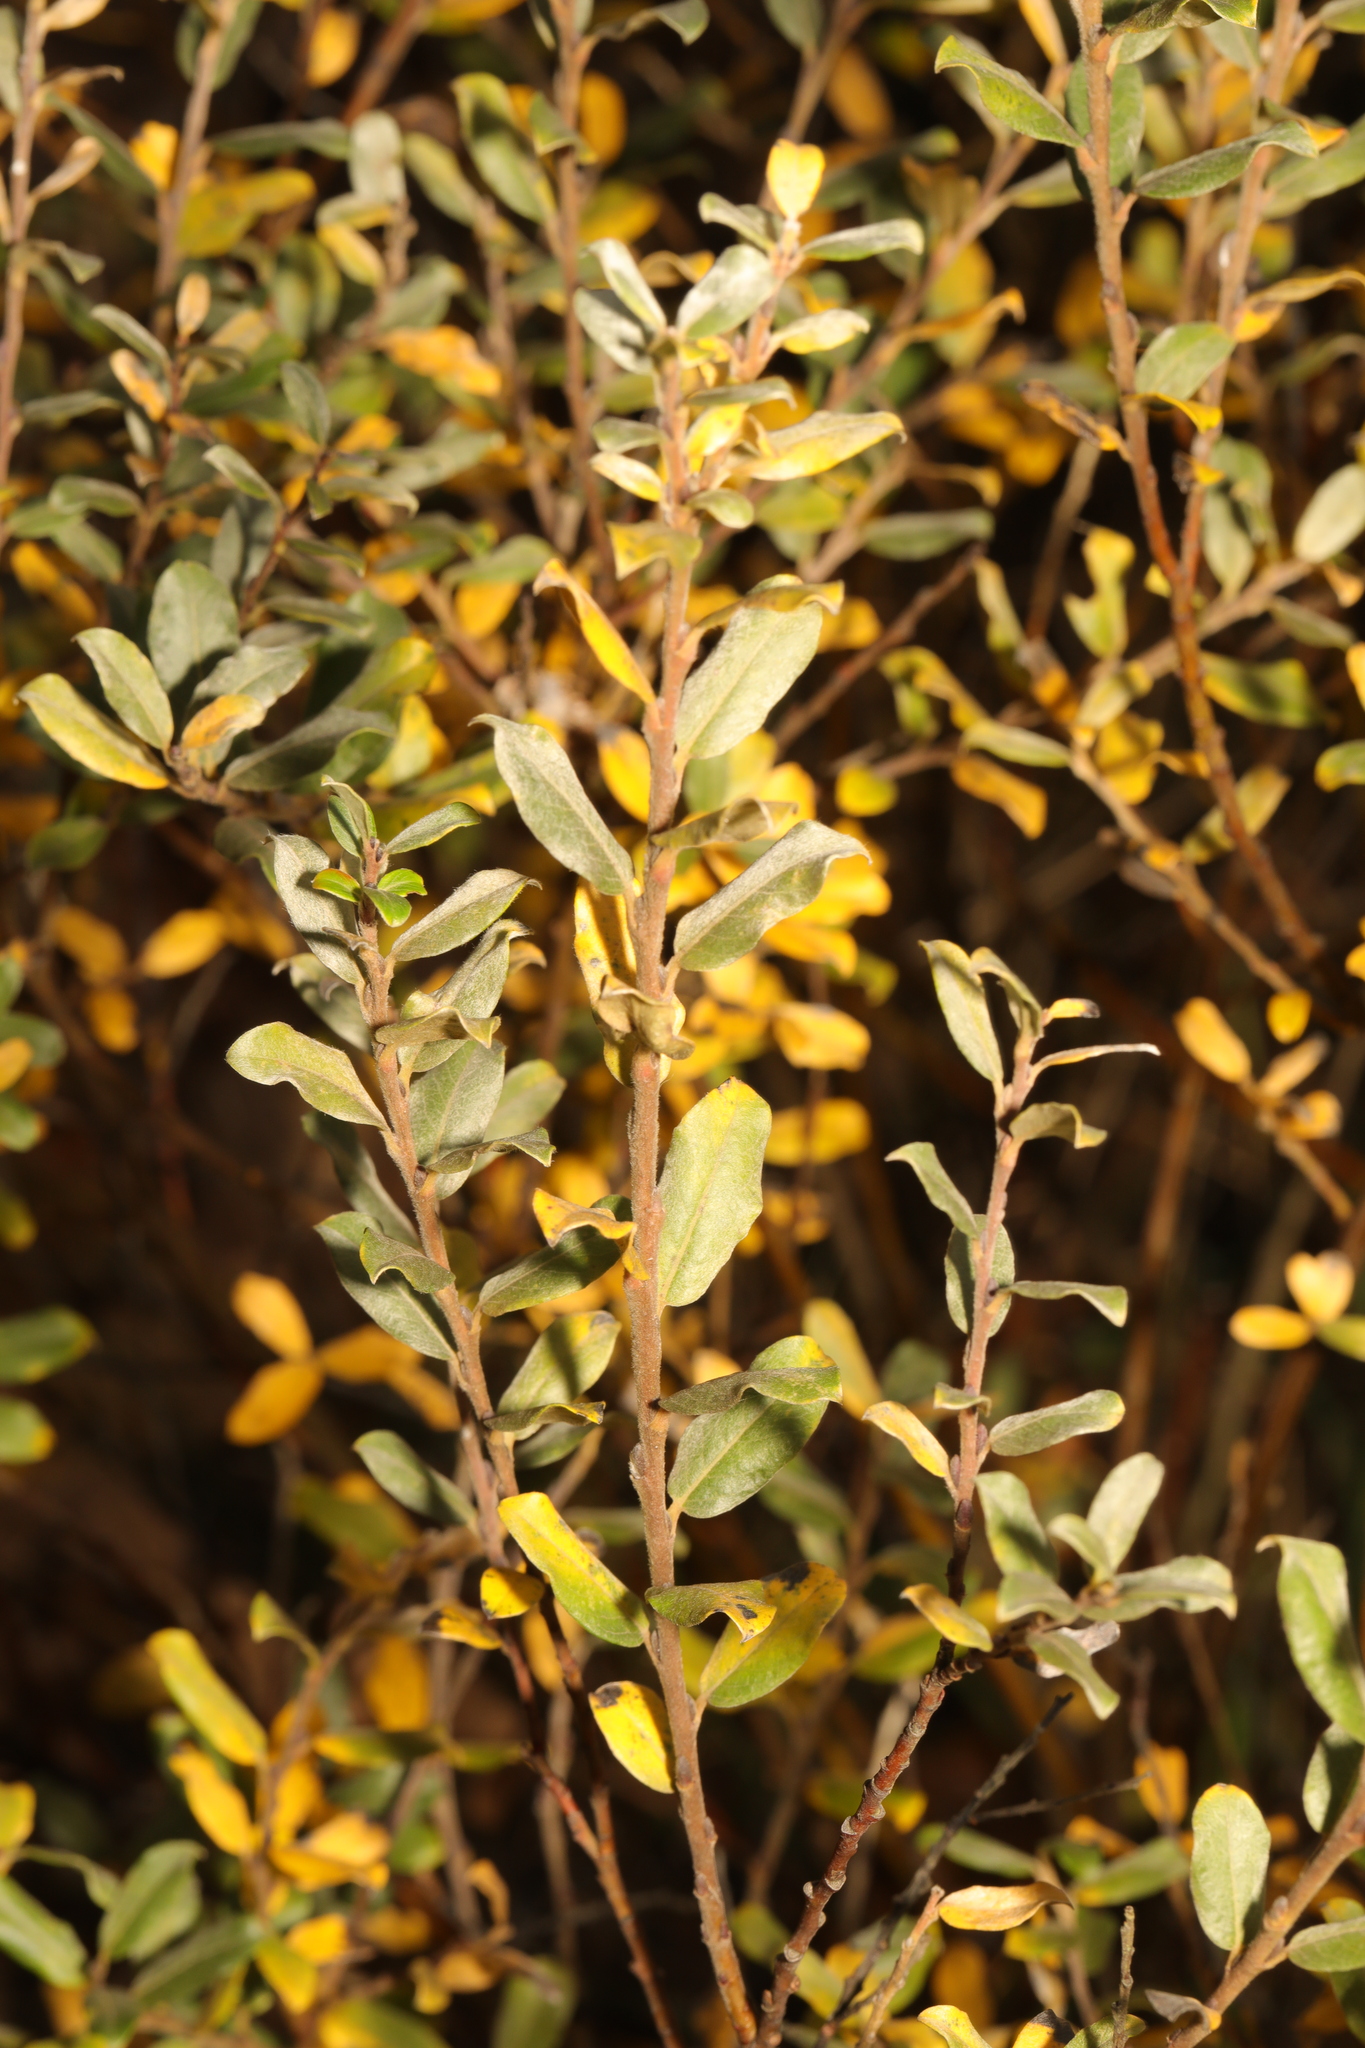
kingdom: Plantae
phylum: Tracheophyta
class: Magnoliopsida
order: Malpighiales
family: Salicaceae
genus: Salix
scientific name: Salix repens
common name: Creeping willow
